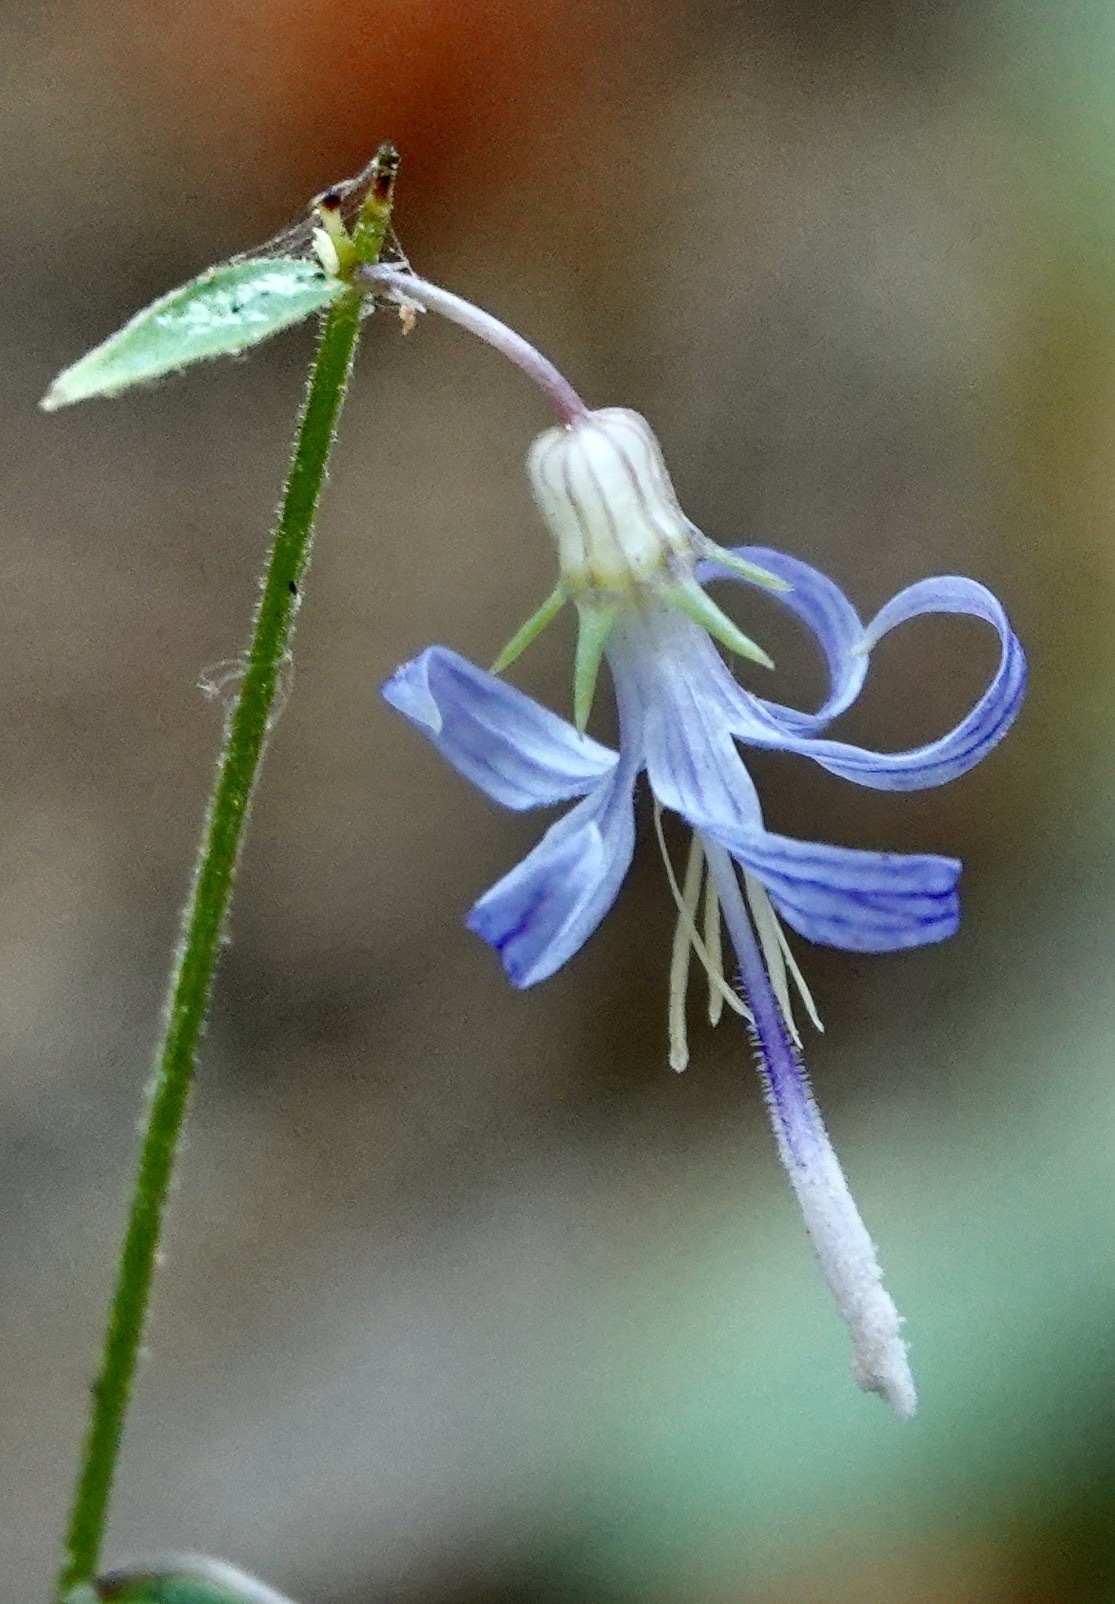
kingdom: Plantae
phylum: Tracheophyta
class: Magnoliopsida
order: Asterales
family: Campanulaceae
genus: Smithiastrum
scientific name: Smithiastrum prenanthoides
